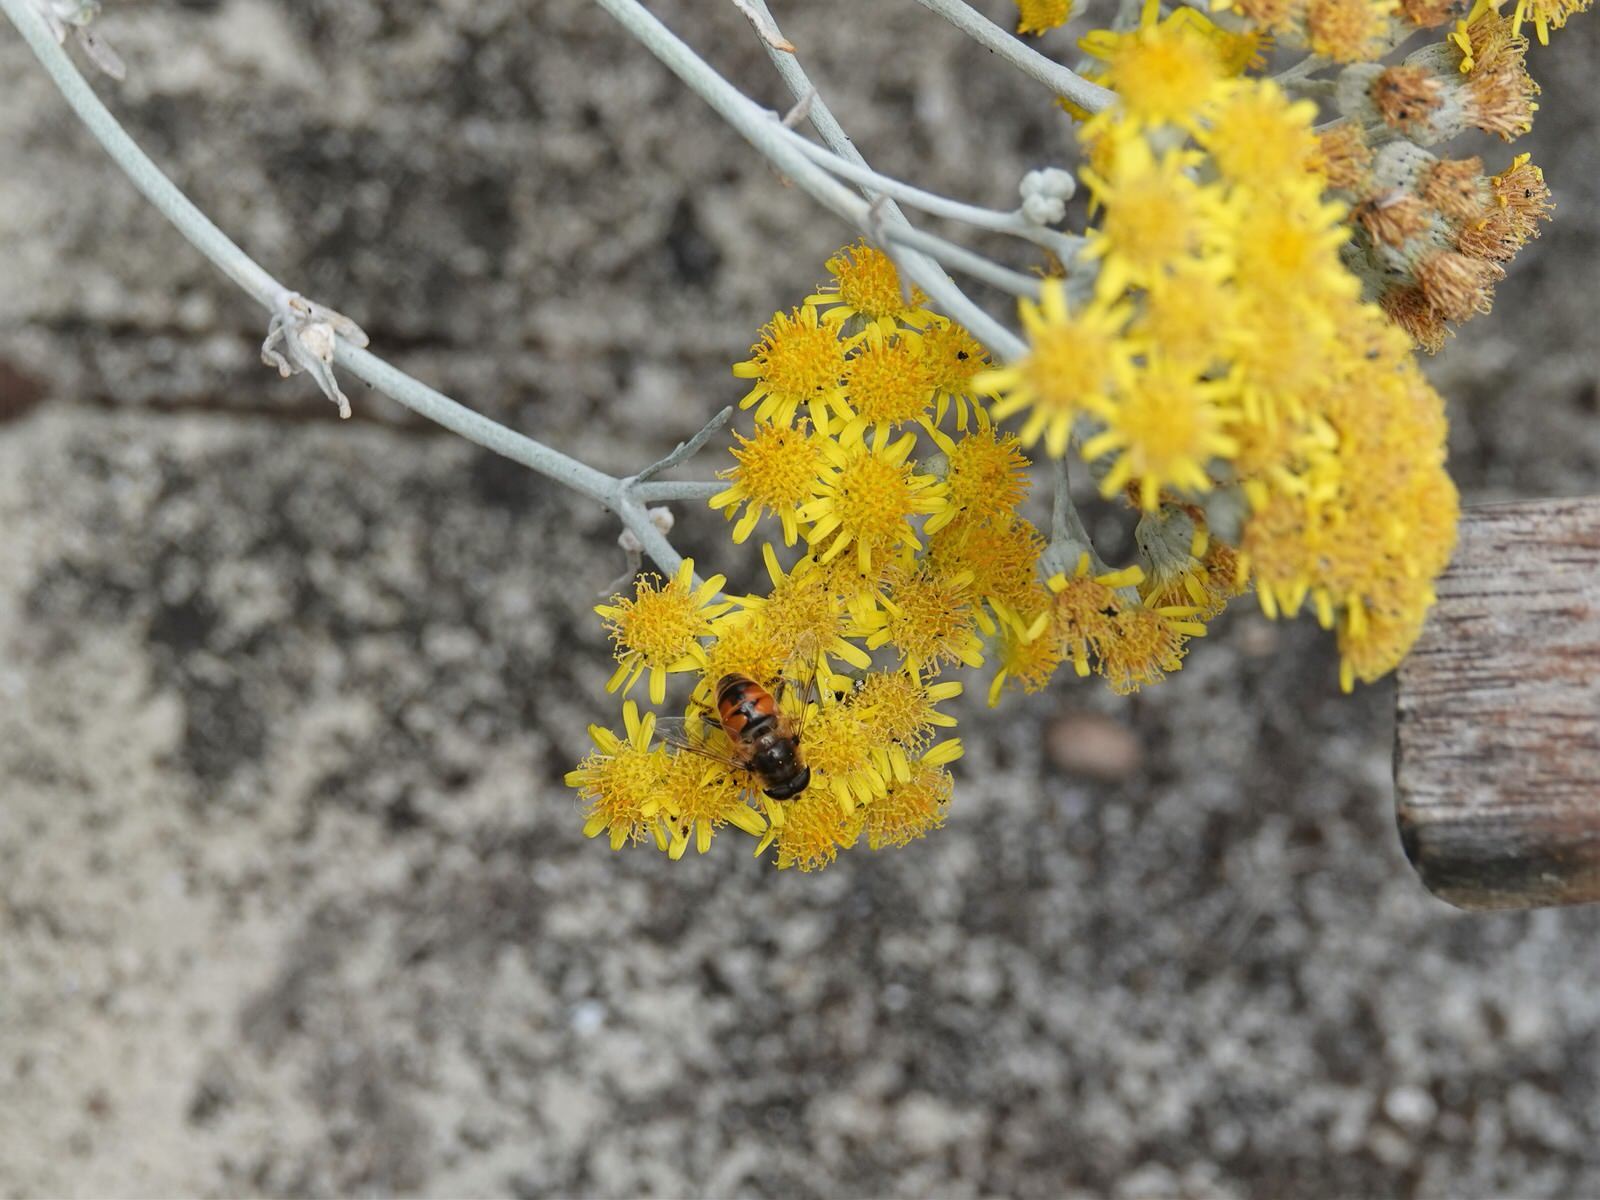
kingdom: Animalia
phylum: Arthropoda
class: Insecta
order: Diptera
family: Syrphidae
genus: Eristalis
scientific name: Eristalis tenax
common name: Drone fly
